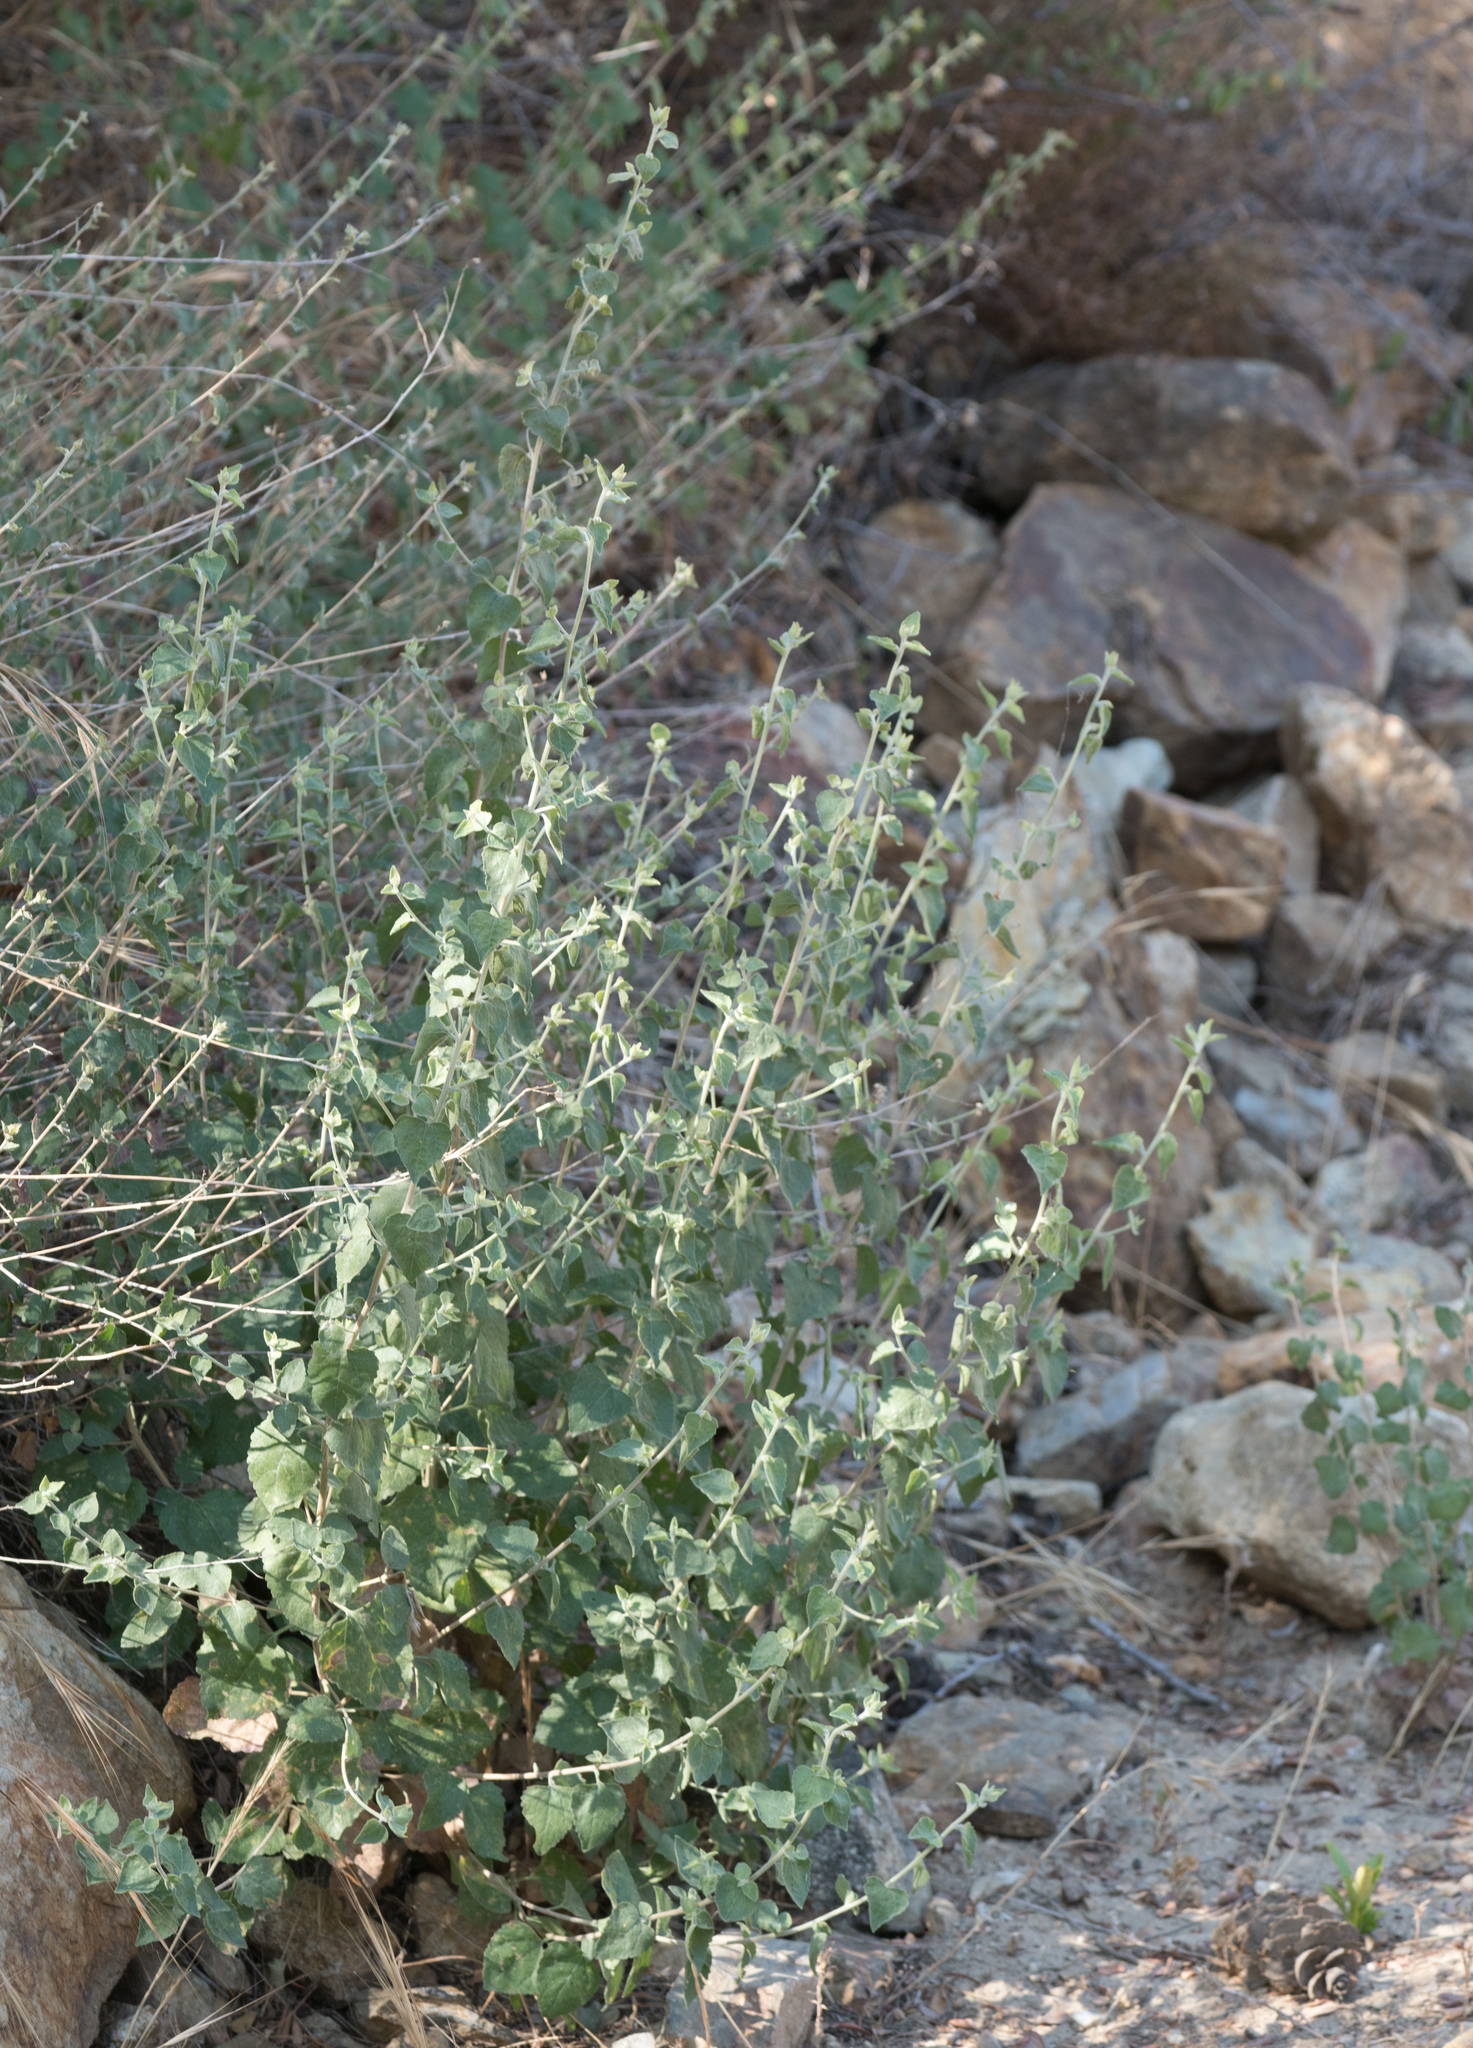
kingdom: Plantae
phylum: Tracheophyta
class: Magnoliopsida
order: Asterales
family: Asteraceae
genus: Brickellia
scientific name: Brickellia californica
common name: California brickellbush
